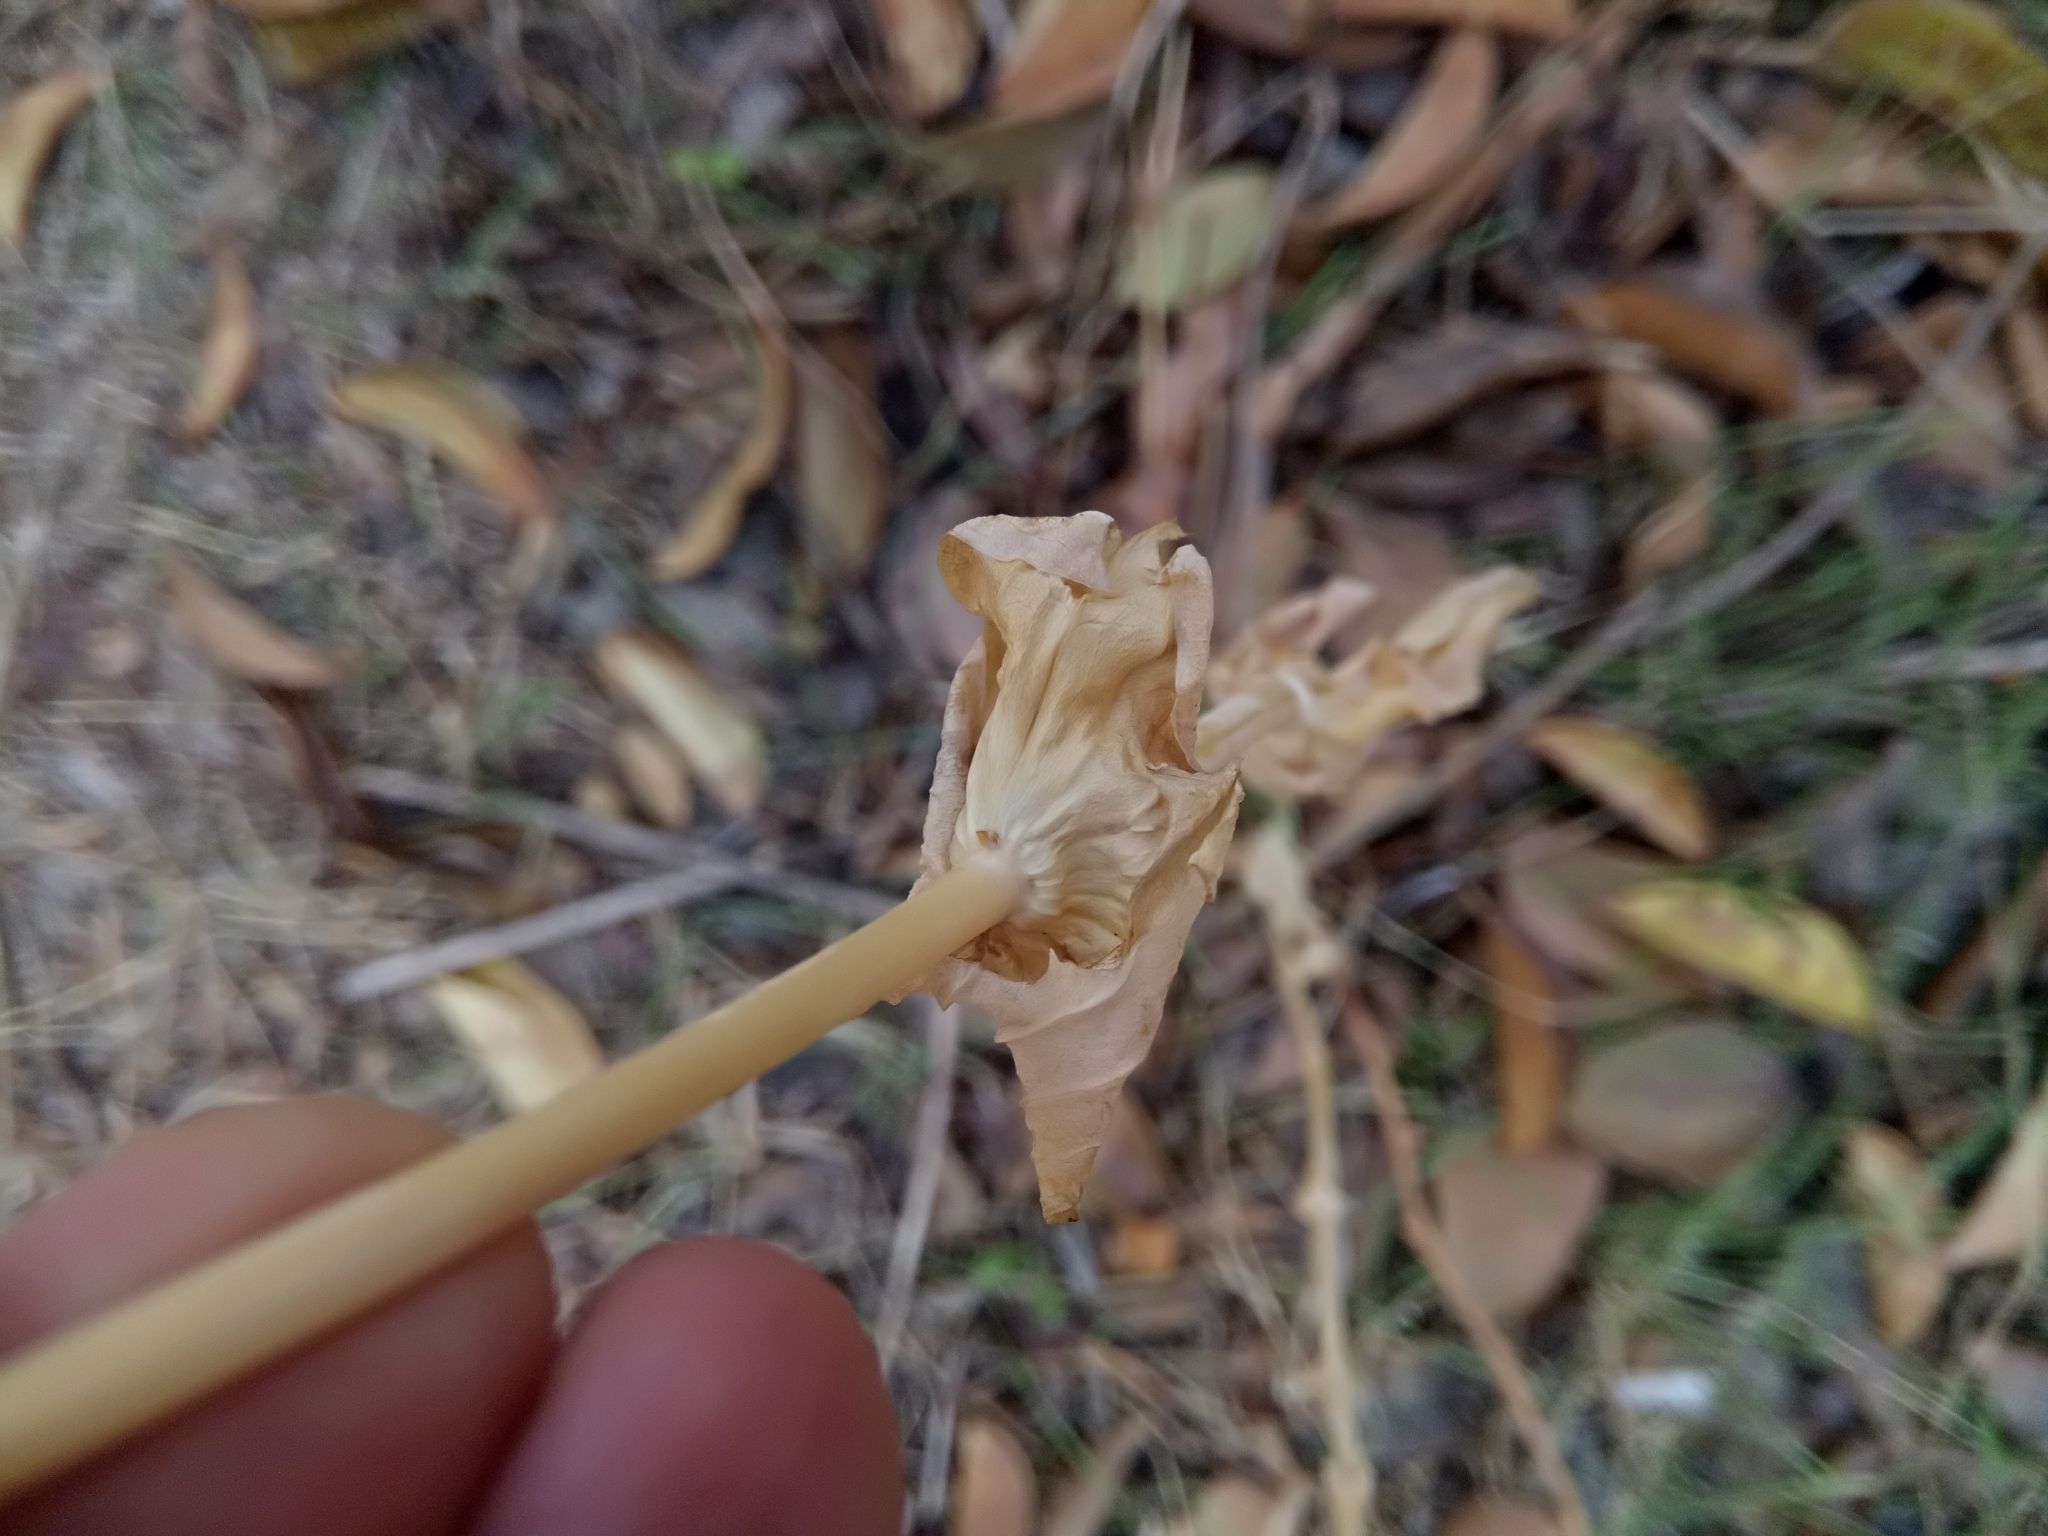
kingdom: Plantae
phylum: Tracheophyta
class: Magnoliopsida
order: Gentianales
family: Gentianaceae
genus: Blackstonia
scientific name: Blackstonia grandiflora
